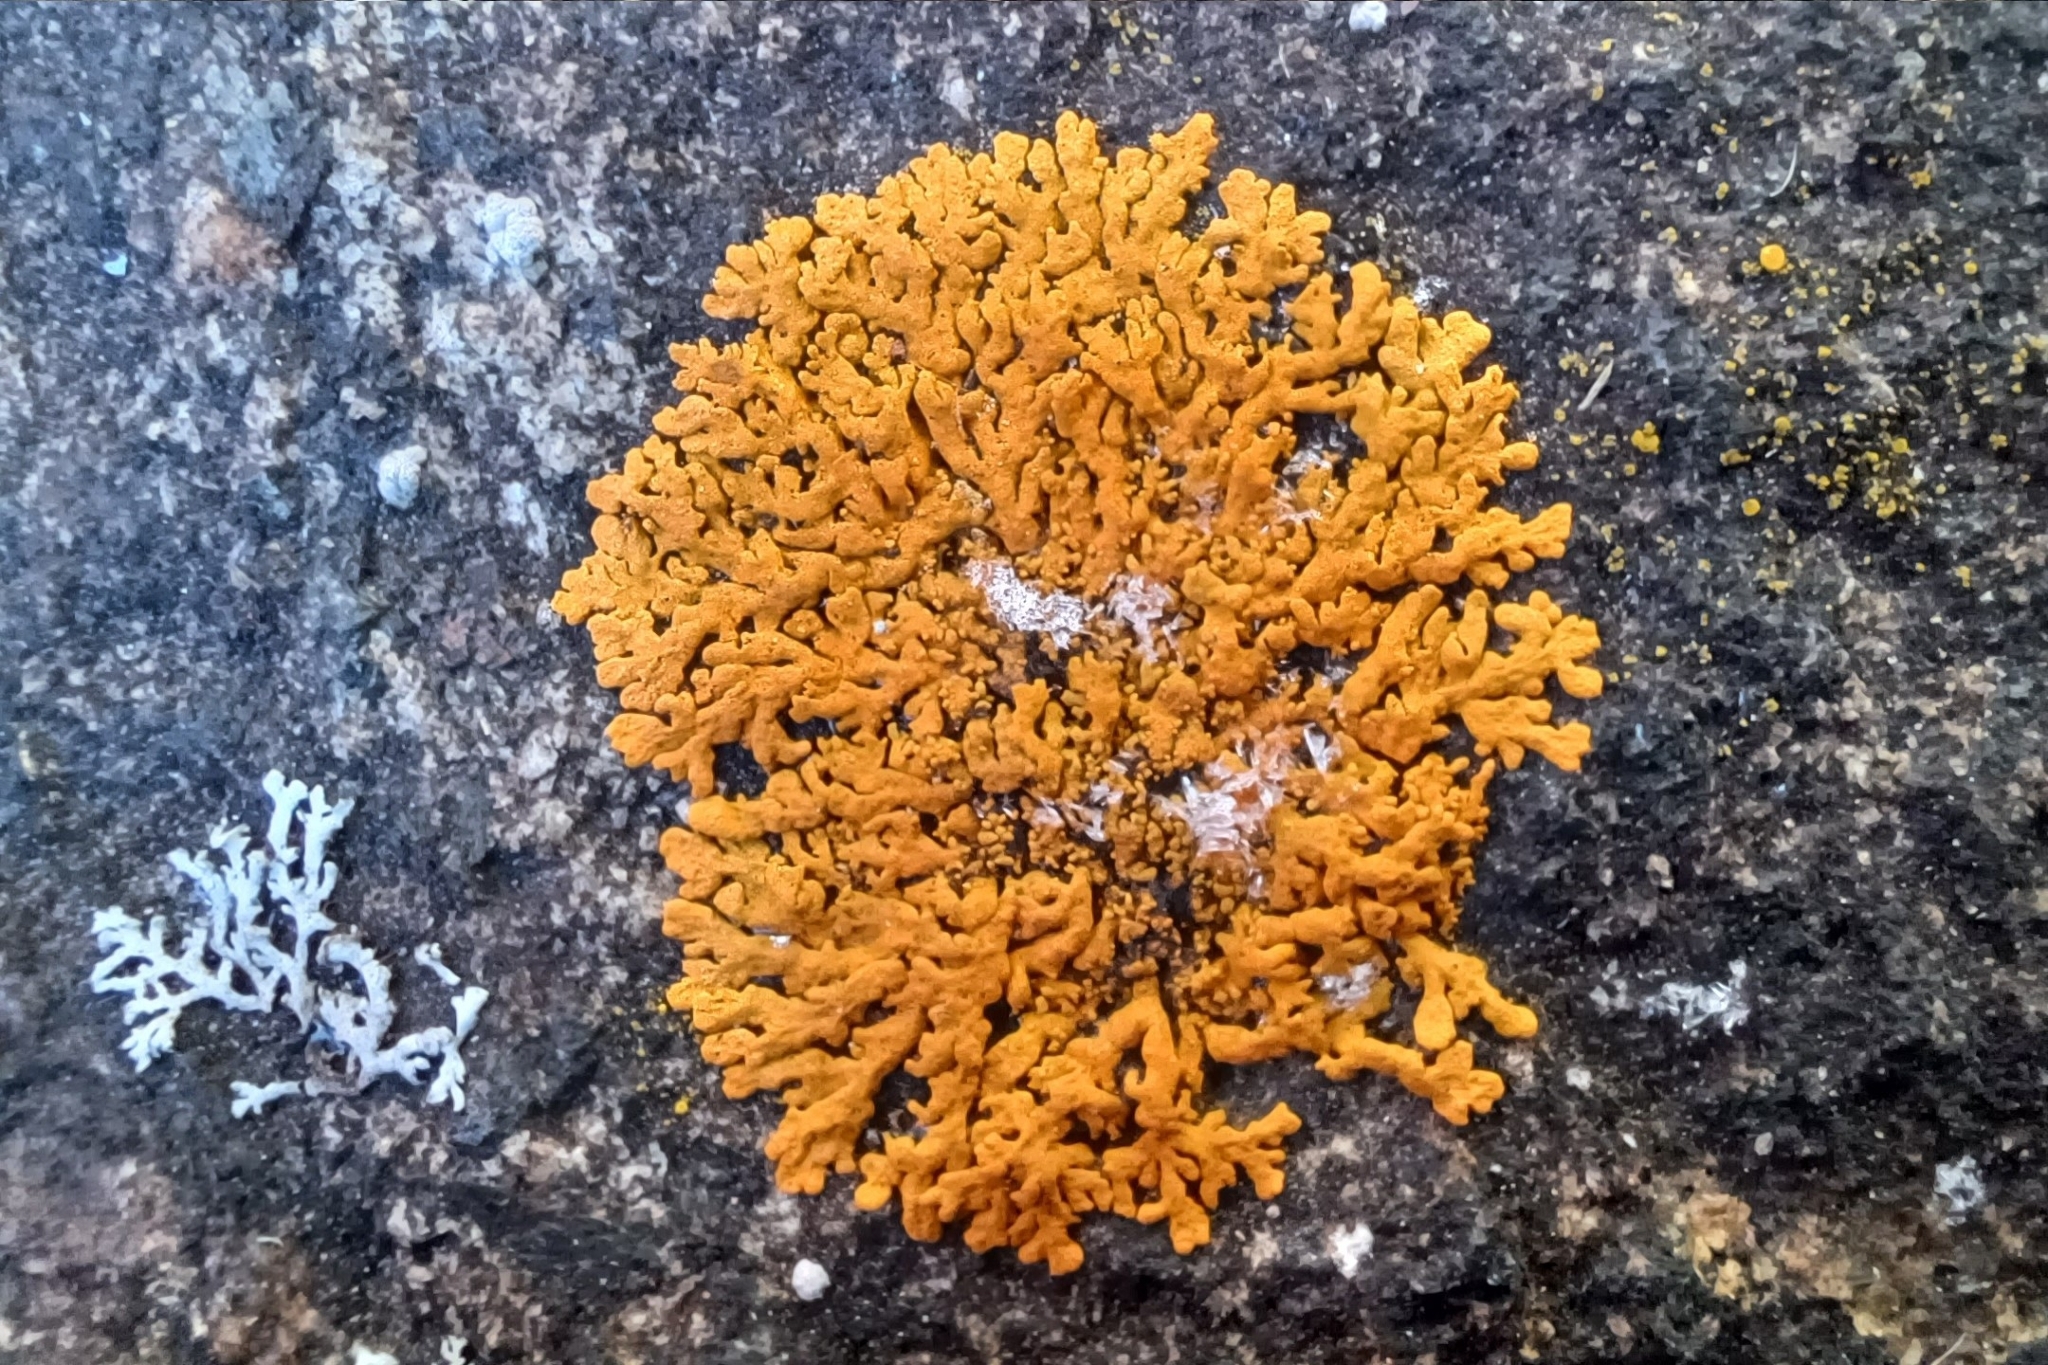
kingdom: Fungi
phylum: Ascomycota
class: Lecanoromycetes
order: Teloschistales
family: Teloschistaceae
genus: Xanthoria
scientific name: Xanthoria elegans
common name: Elegant sunburst lichen
